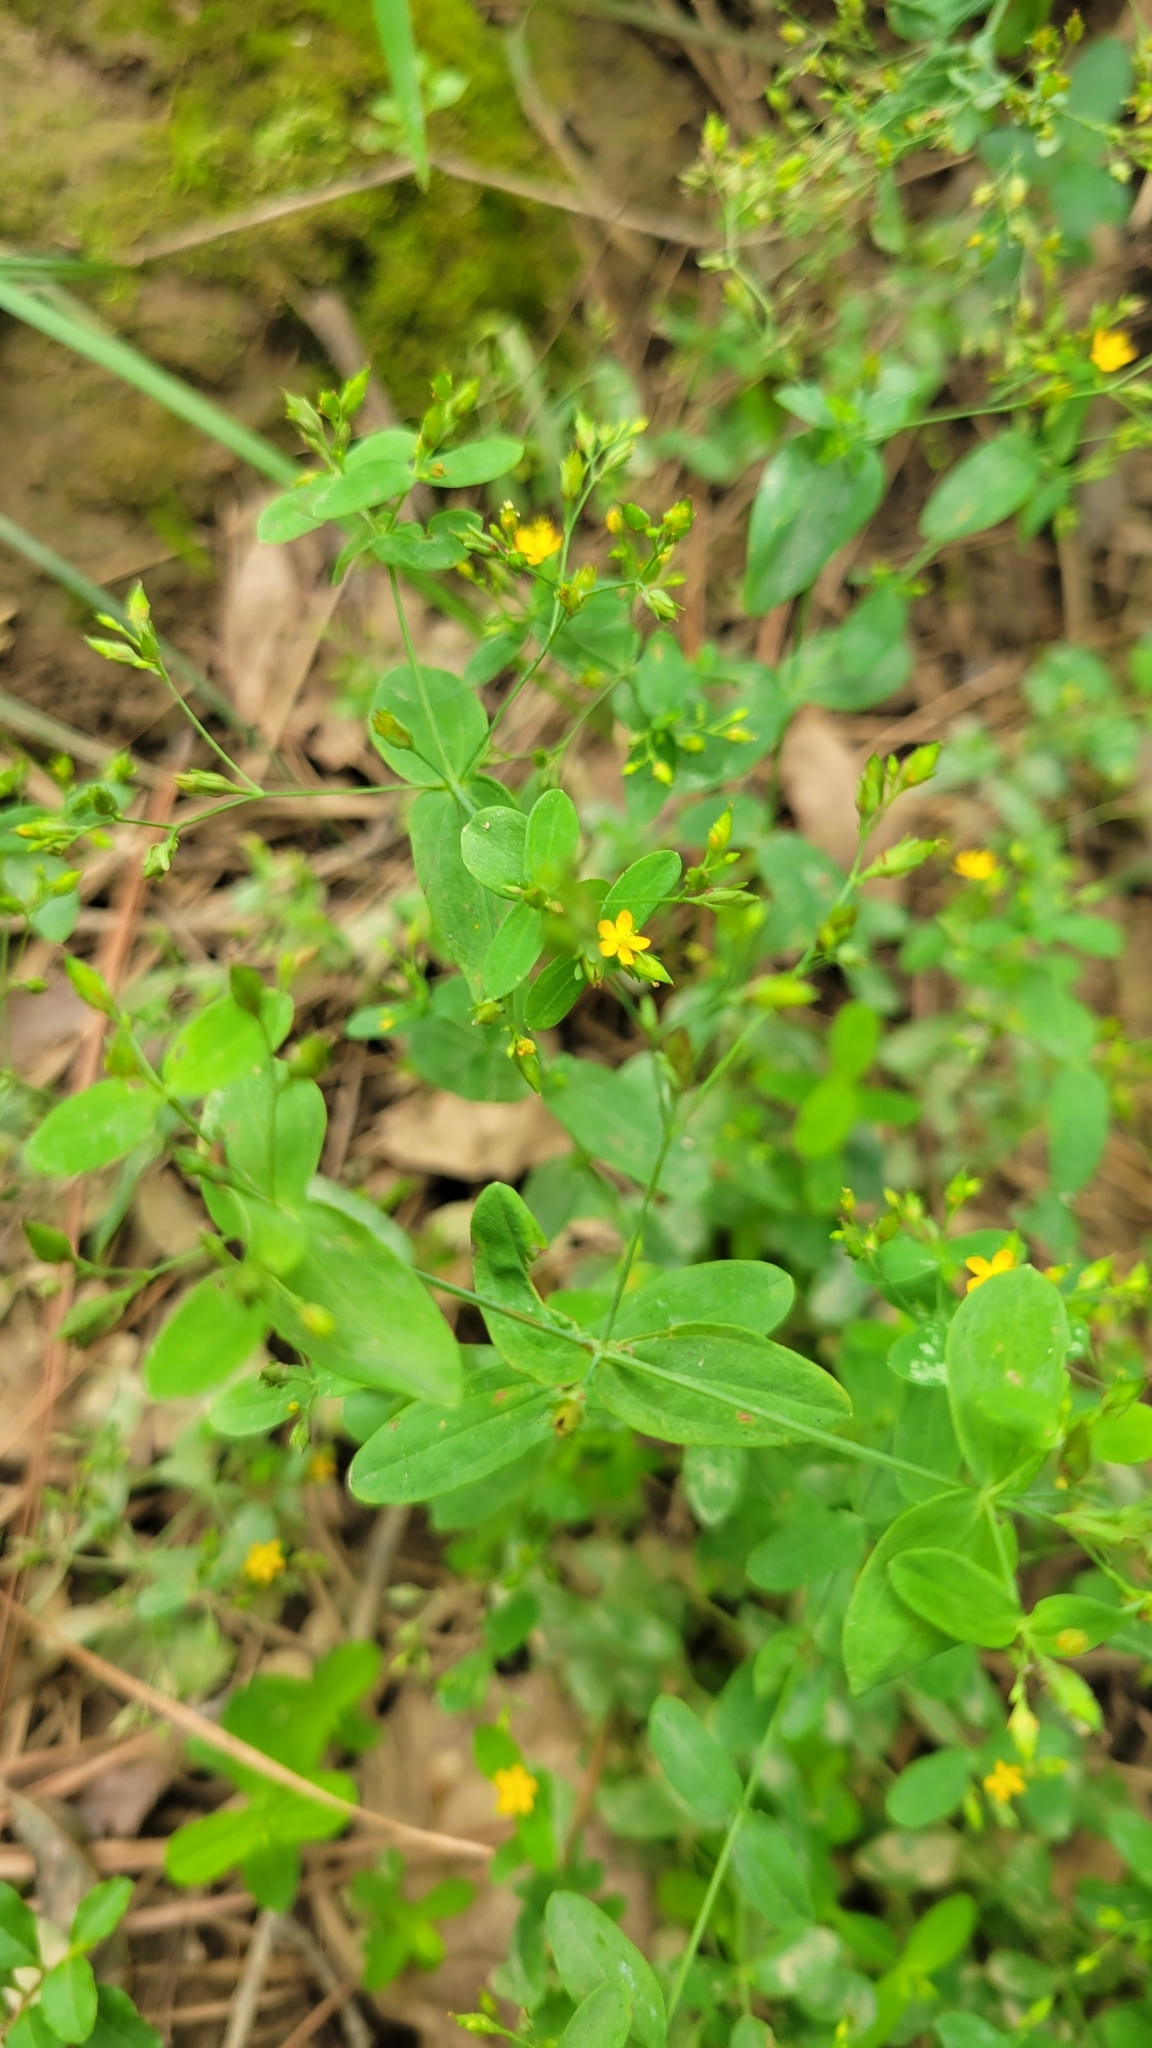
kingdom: Plantae
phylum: Tracheophyta
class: Magnoliopsida
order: Malpighiales
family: Hypericaceae
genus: Hypericum
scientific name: Hypericum mutilum
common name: Dwarf st. john's-wort
